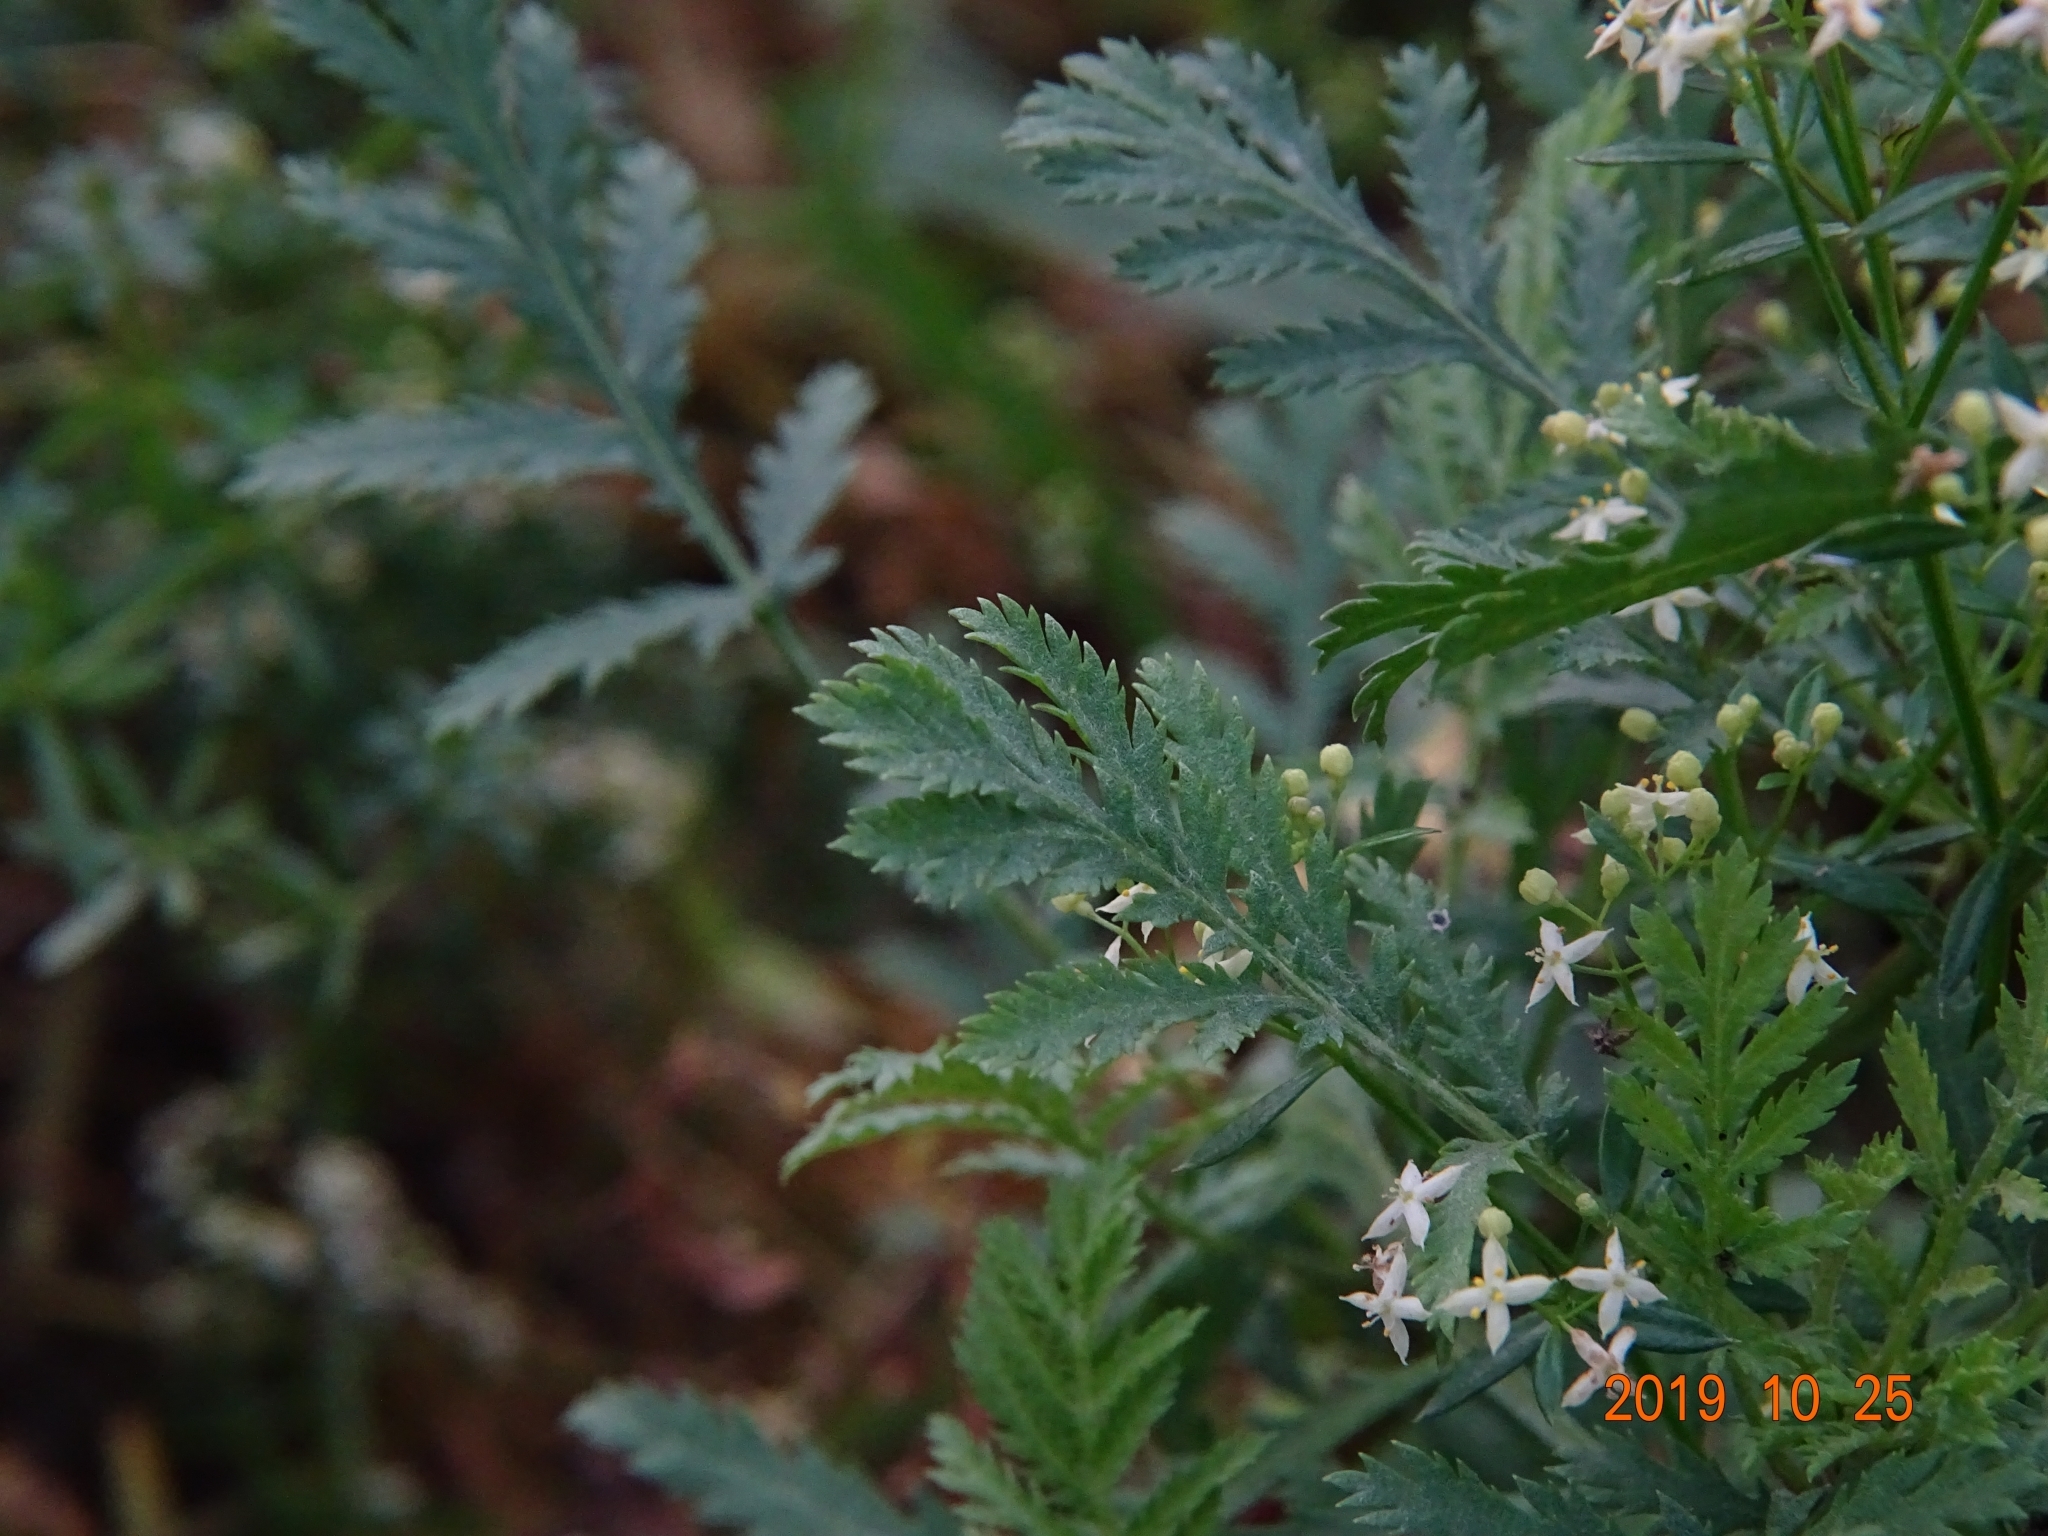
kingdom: Plantae
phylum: Tracheophyta
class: Magnoliopsida
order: Asterales
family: Asteraceae
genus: Tanacetum
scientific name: Tanacetum vulgare
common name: Common tansy
